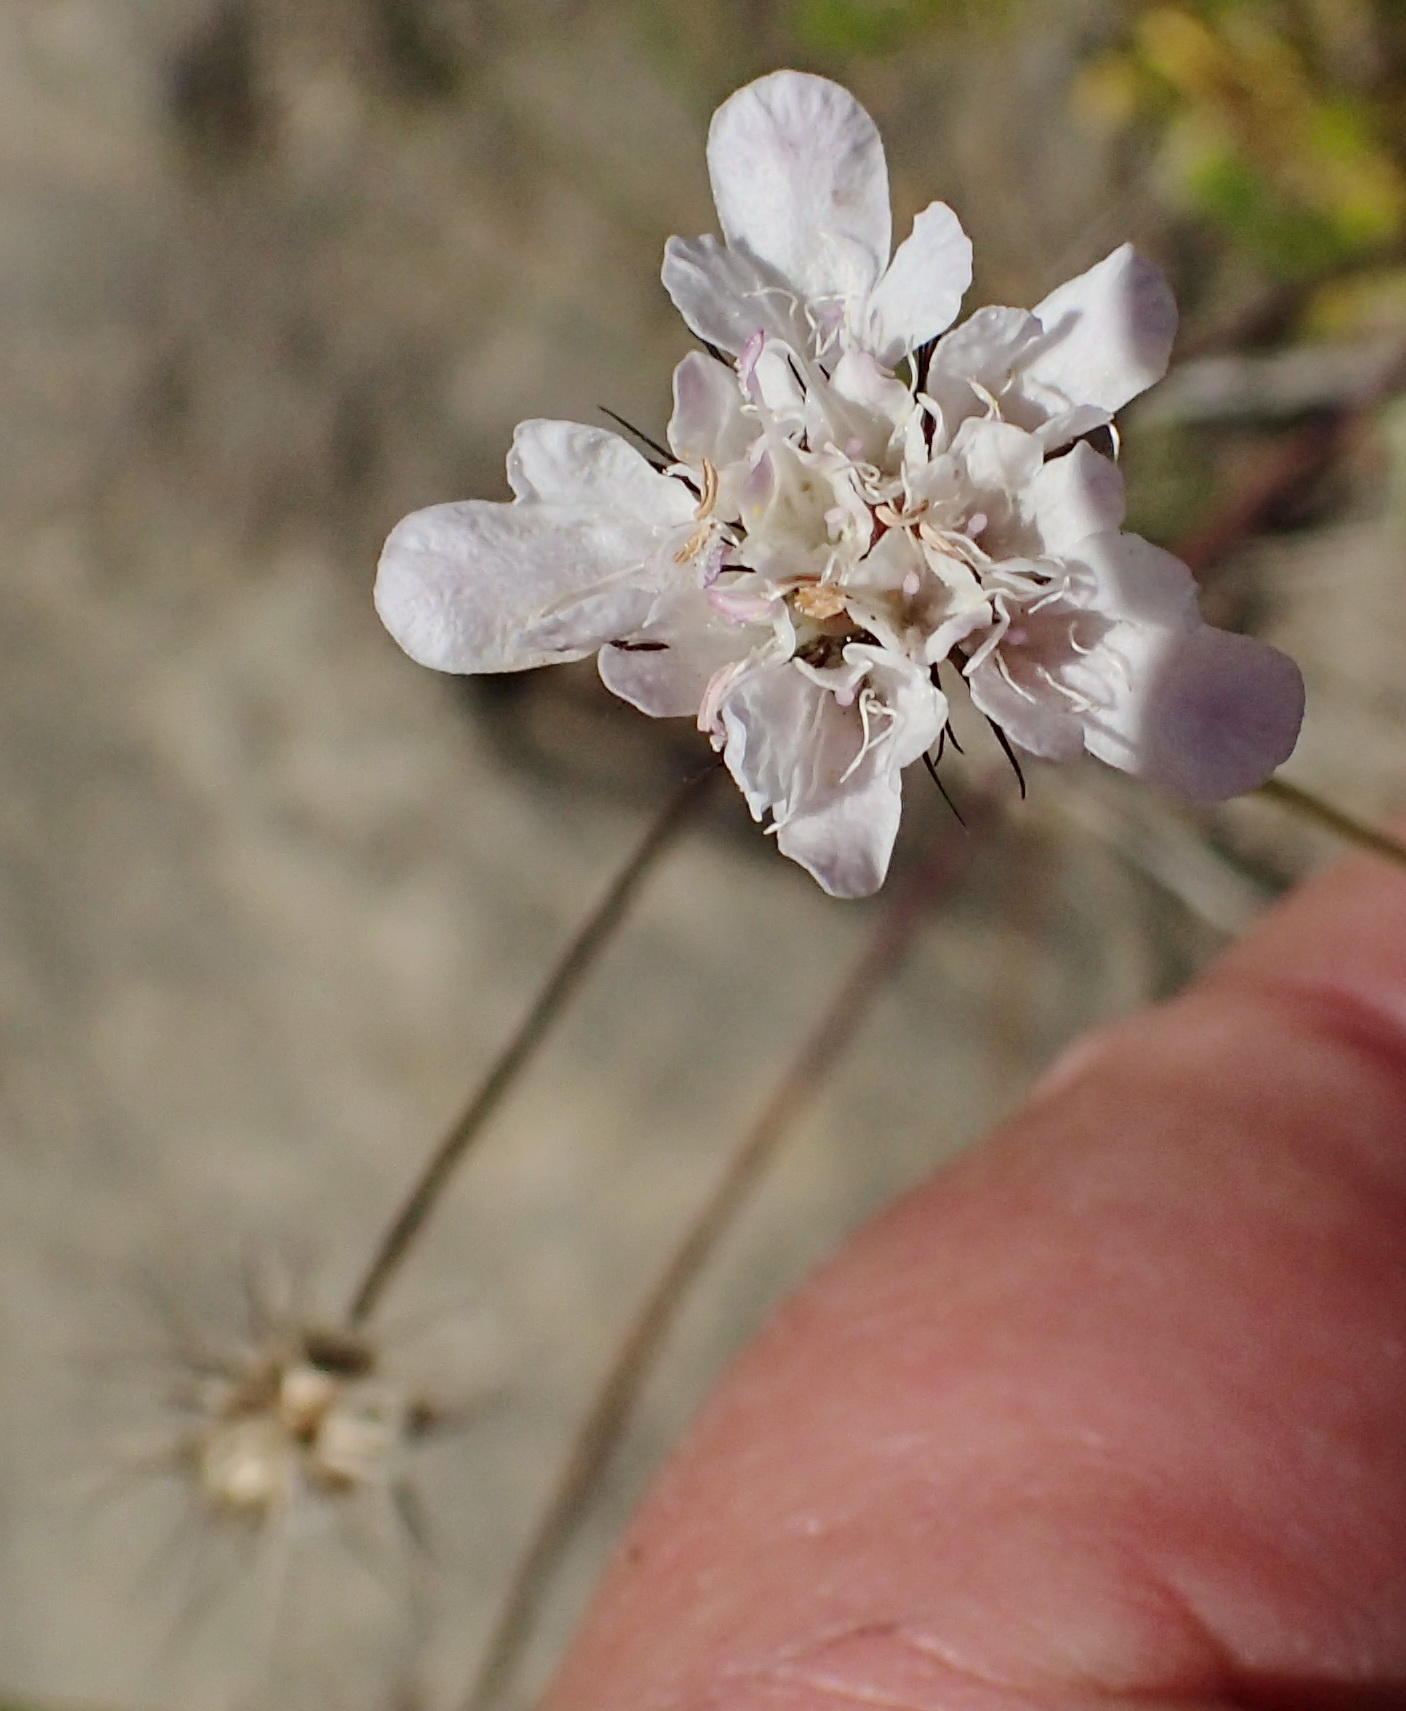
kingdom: Plantae
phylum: Tracheophyta
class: Magnoliopsida
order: Dipsacales
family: Caprifoliaceae
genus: Scabiosa
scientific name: Scabiosa columbaria
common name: Small scabious
